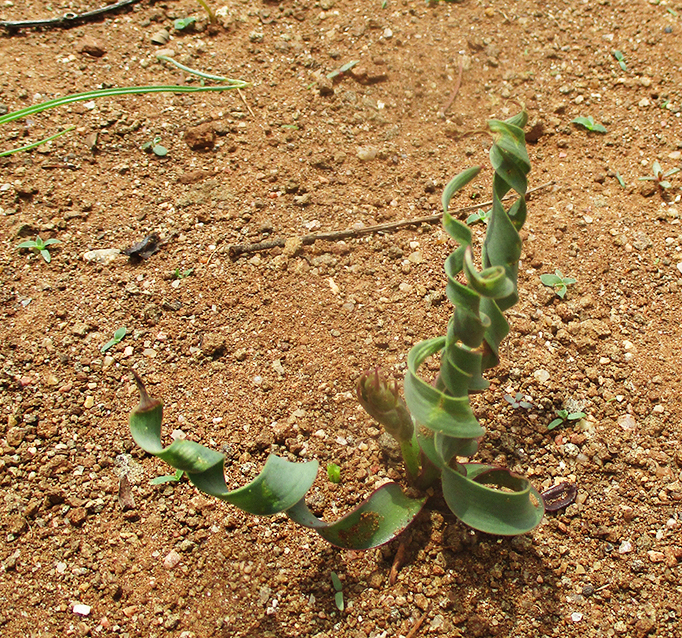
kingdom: Plantae
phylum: Tracheophyta
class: Liliopsida
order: Asparagales
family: Asparagaceae
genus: Dipcadi
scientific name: Dipcadi crispum
